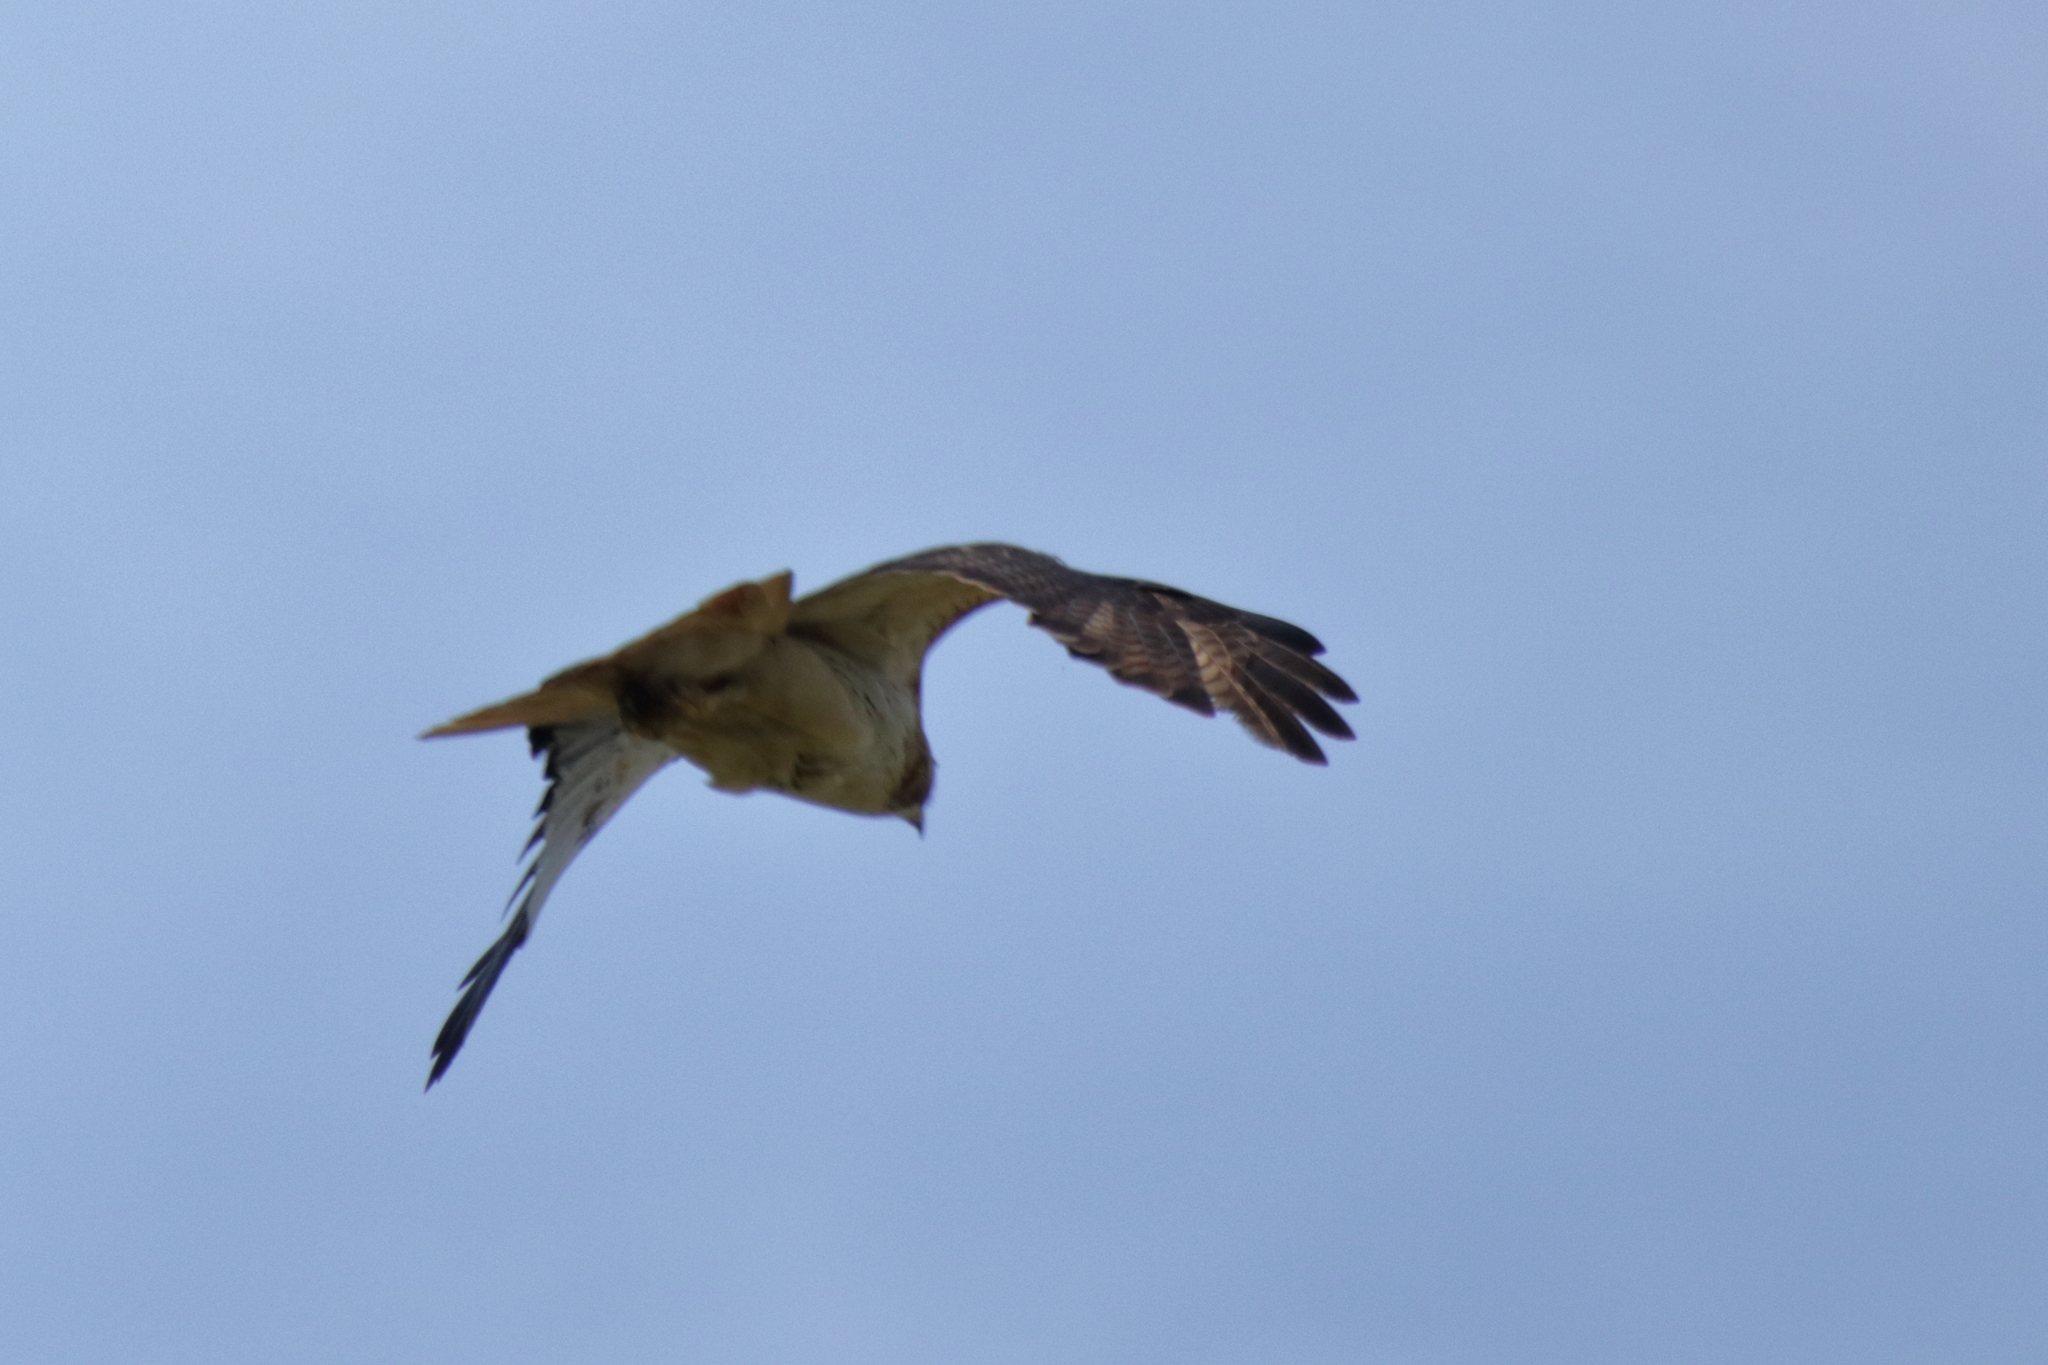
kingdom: Animalia
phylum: Chordata
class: Aves
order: Accipitriformes
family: Accipitridae
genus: Buteo
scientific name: Buteo jamaicensis
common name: Red-tailed hawk
